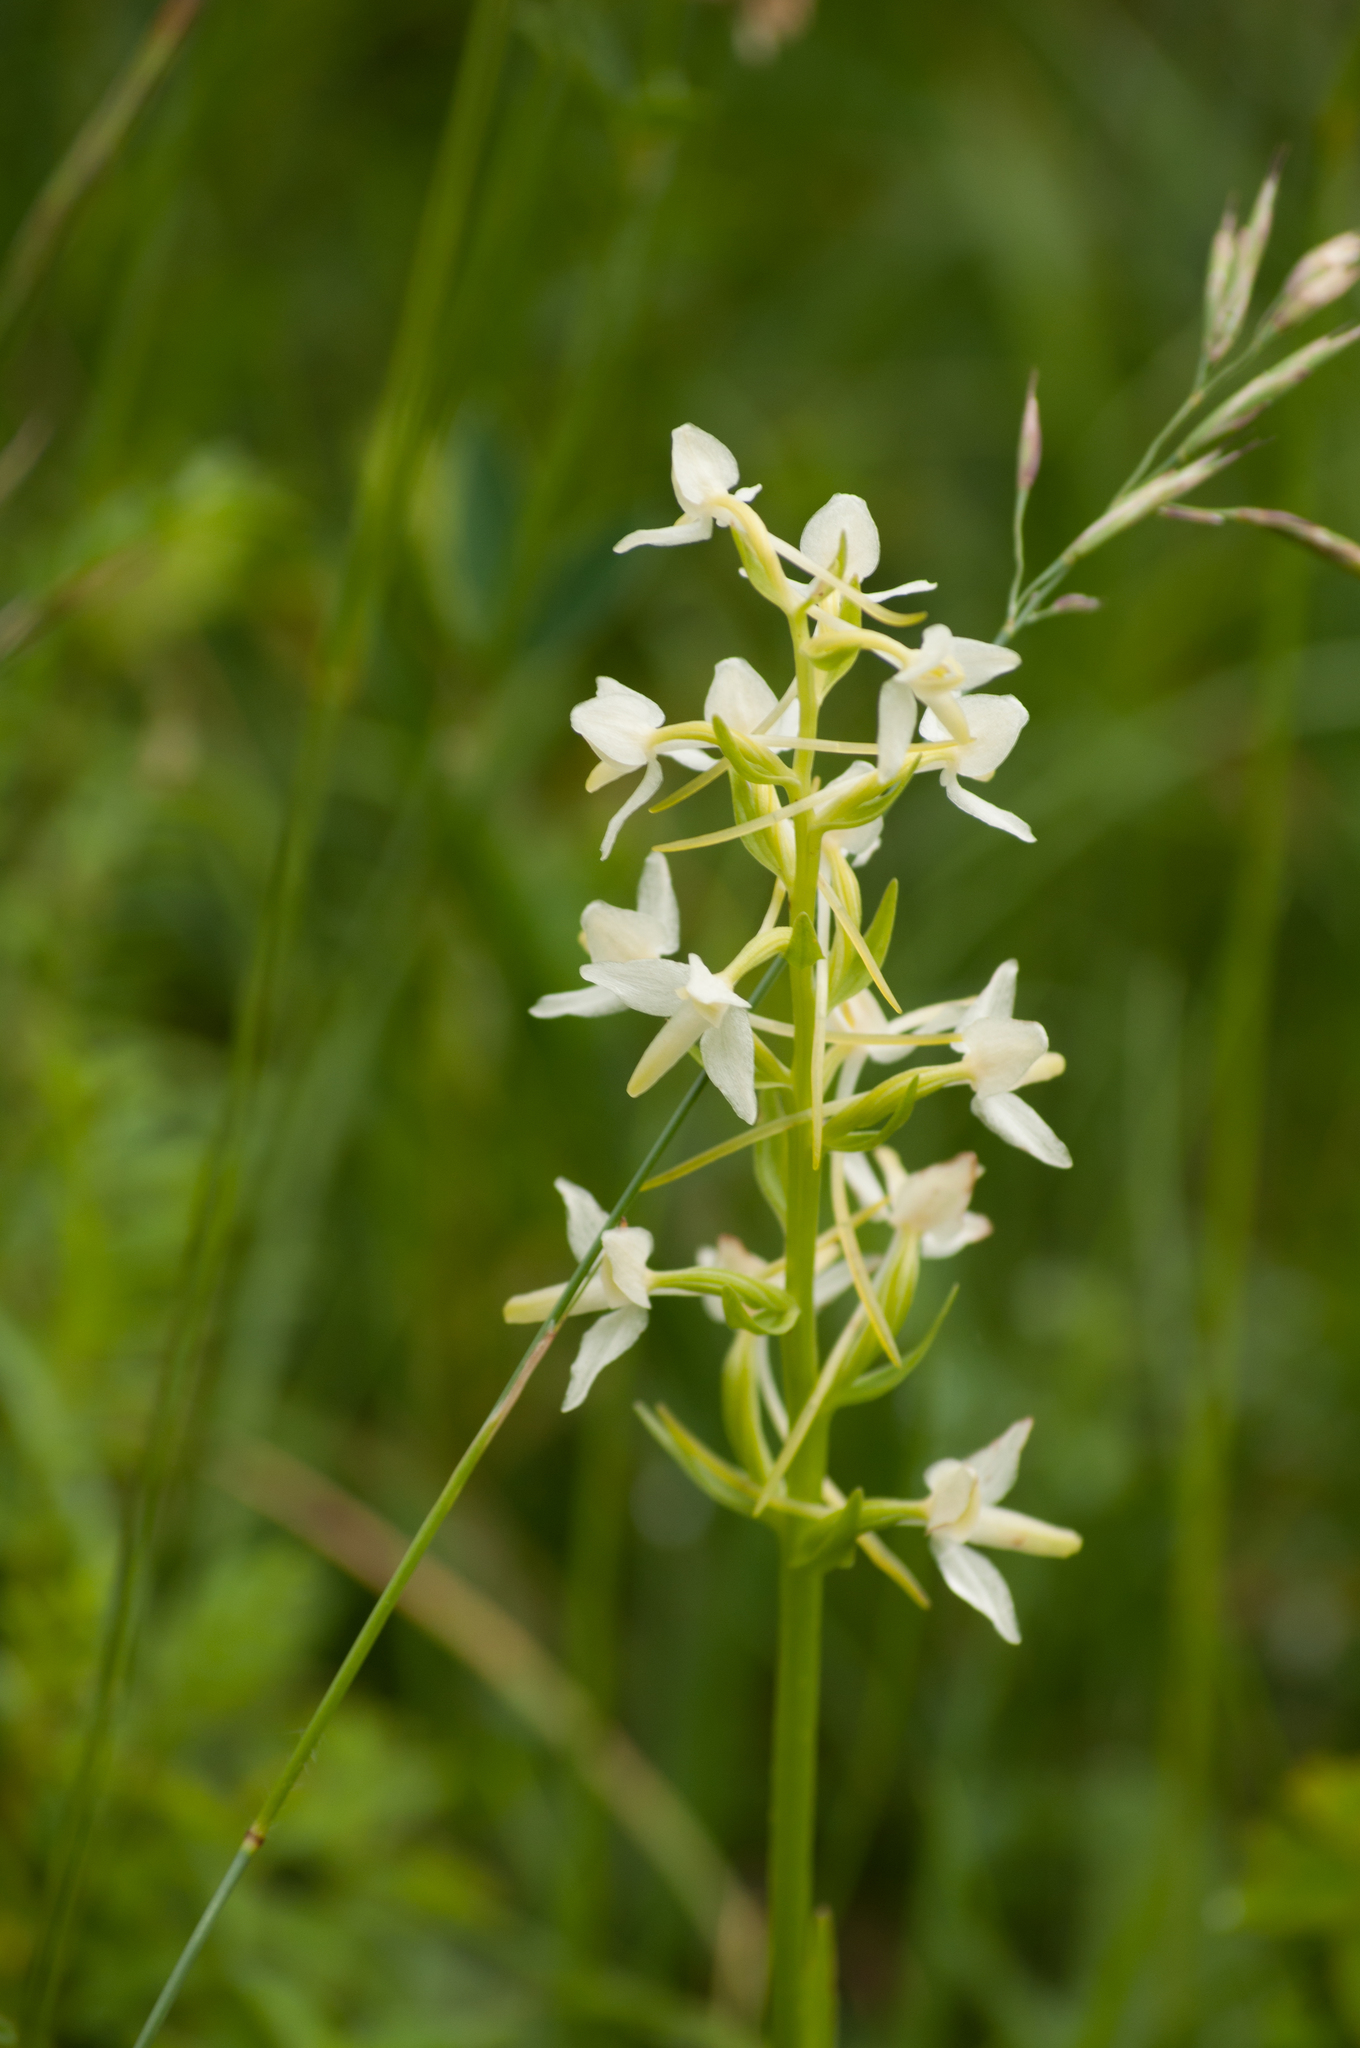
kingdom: Plantae
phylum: Tracheophyta
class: Liliopsida
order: Asparagales
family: Orchidaceae
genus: Platanthera
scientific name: Platanthera bifolia
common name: Lesser butterfly-orchid
